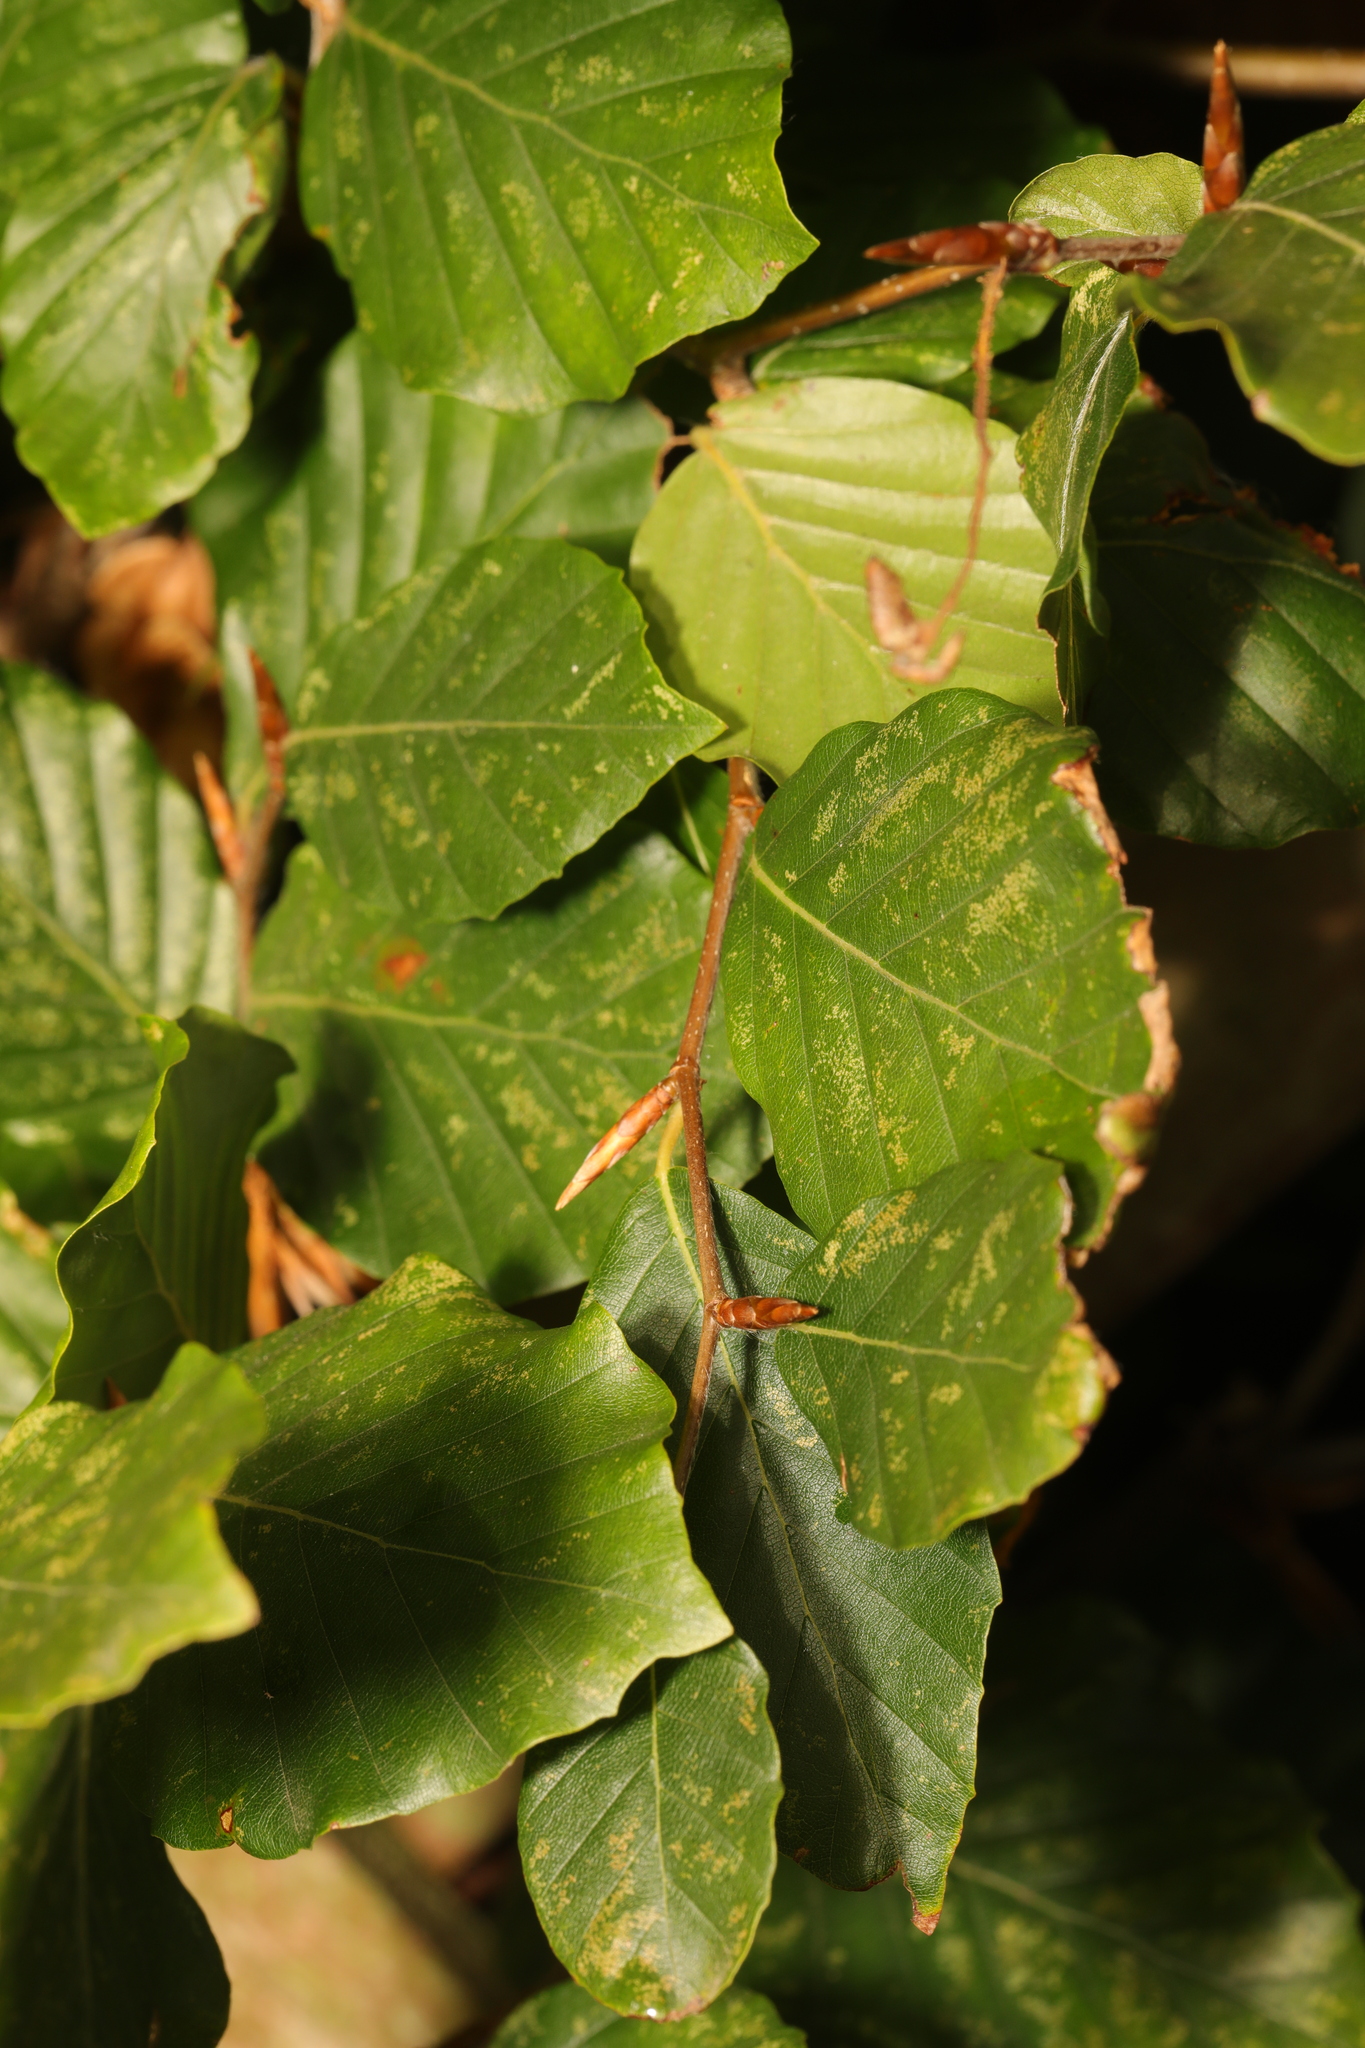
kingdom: Plantae
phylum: Tracheophyta
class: Magnoliopsida
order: Fagales
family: Fagaceae
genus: Fagus
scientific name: Fagus sylvatica
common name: Beech
